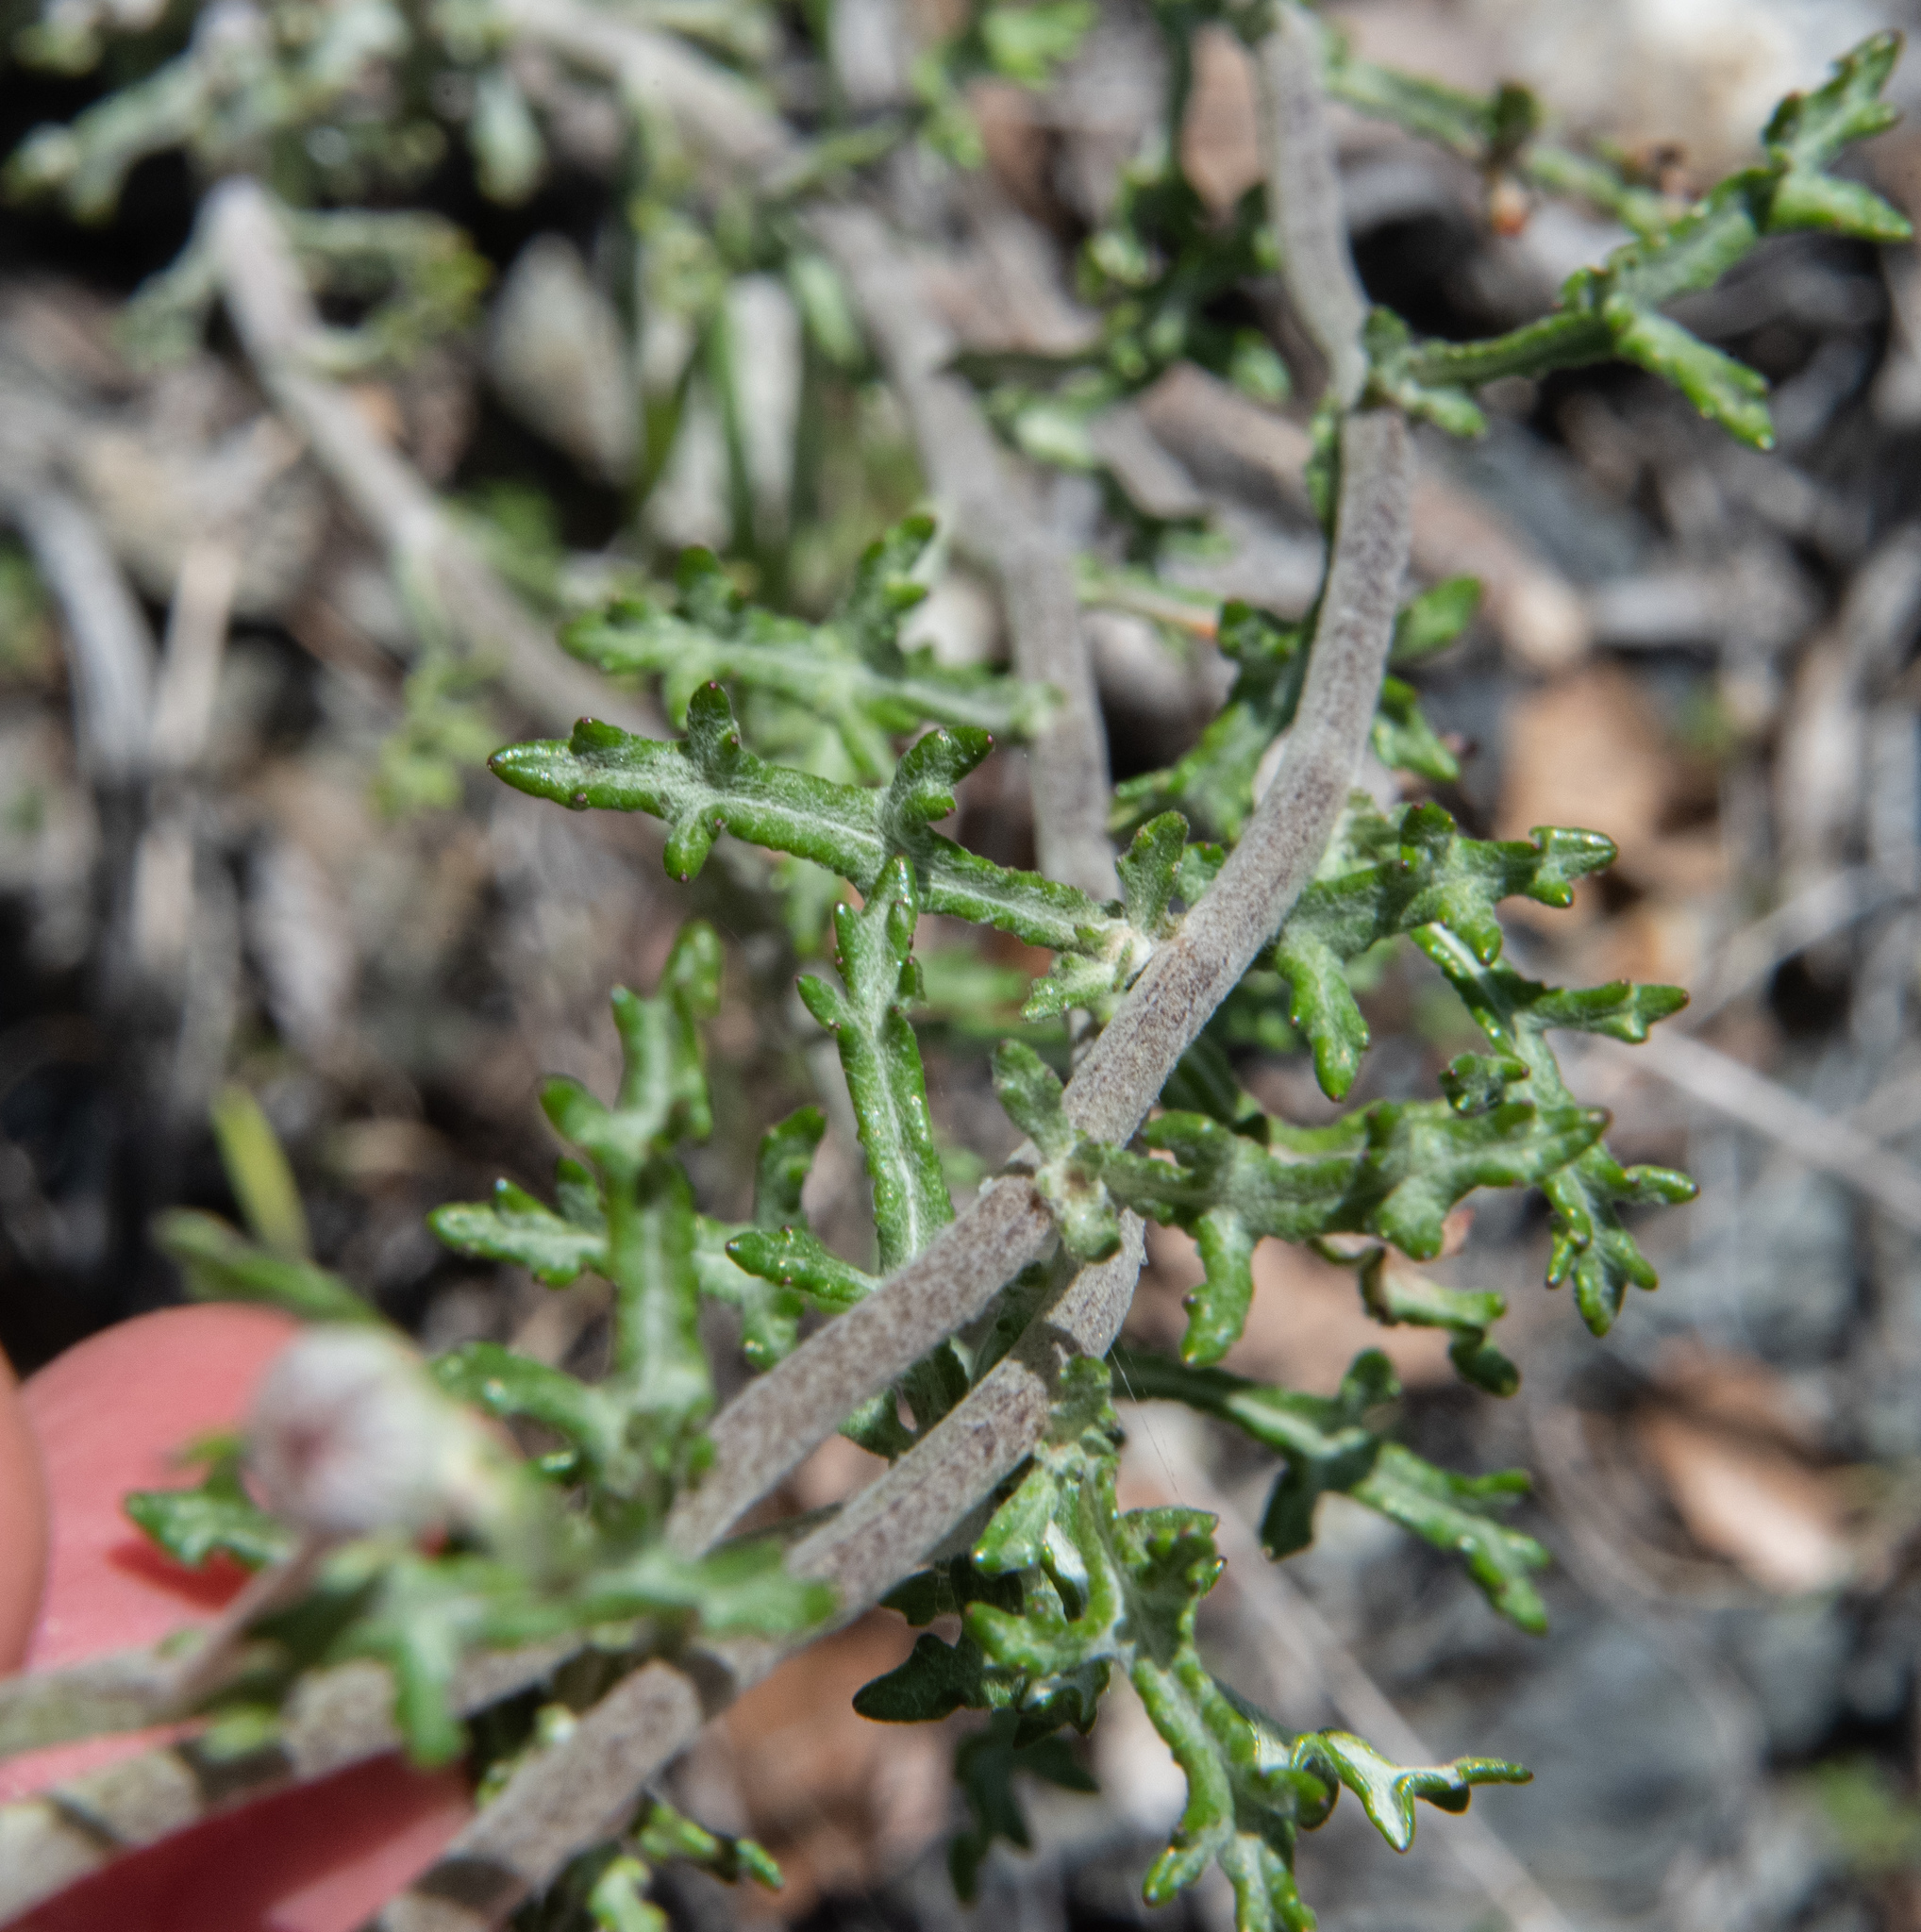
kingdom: Plantae
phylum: Tracheophyta
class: Magnoliopsida
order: Asterales
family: Asteraceae
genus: Eriophyllum
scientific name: Eriophyllum lanatum
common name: Common woolly-sunflower
